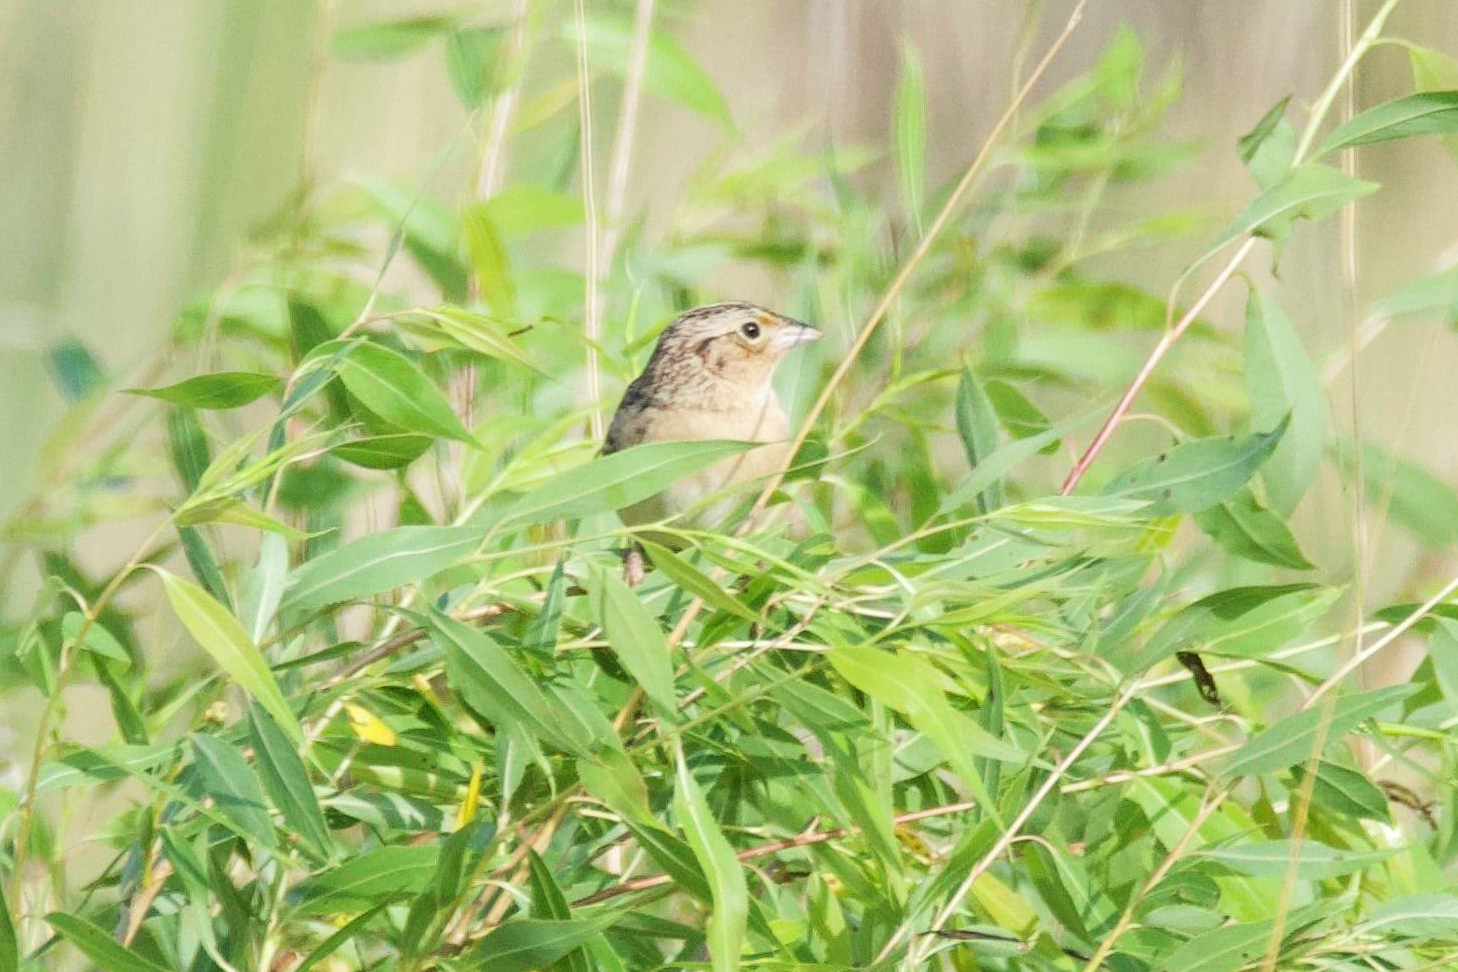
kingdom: Animalia
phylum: Chordata
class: Aves
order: Passeriformes
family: Passerellidae
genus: Ammodramus
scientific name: Ammodramus savannarum
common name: Grasshopper sparrow
